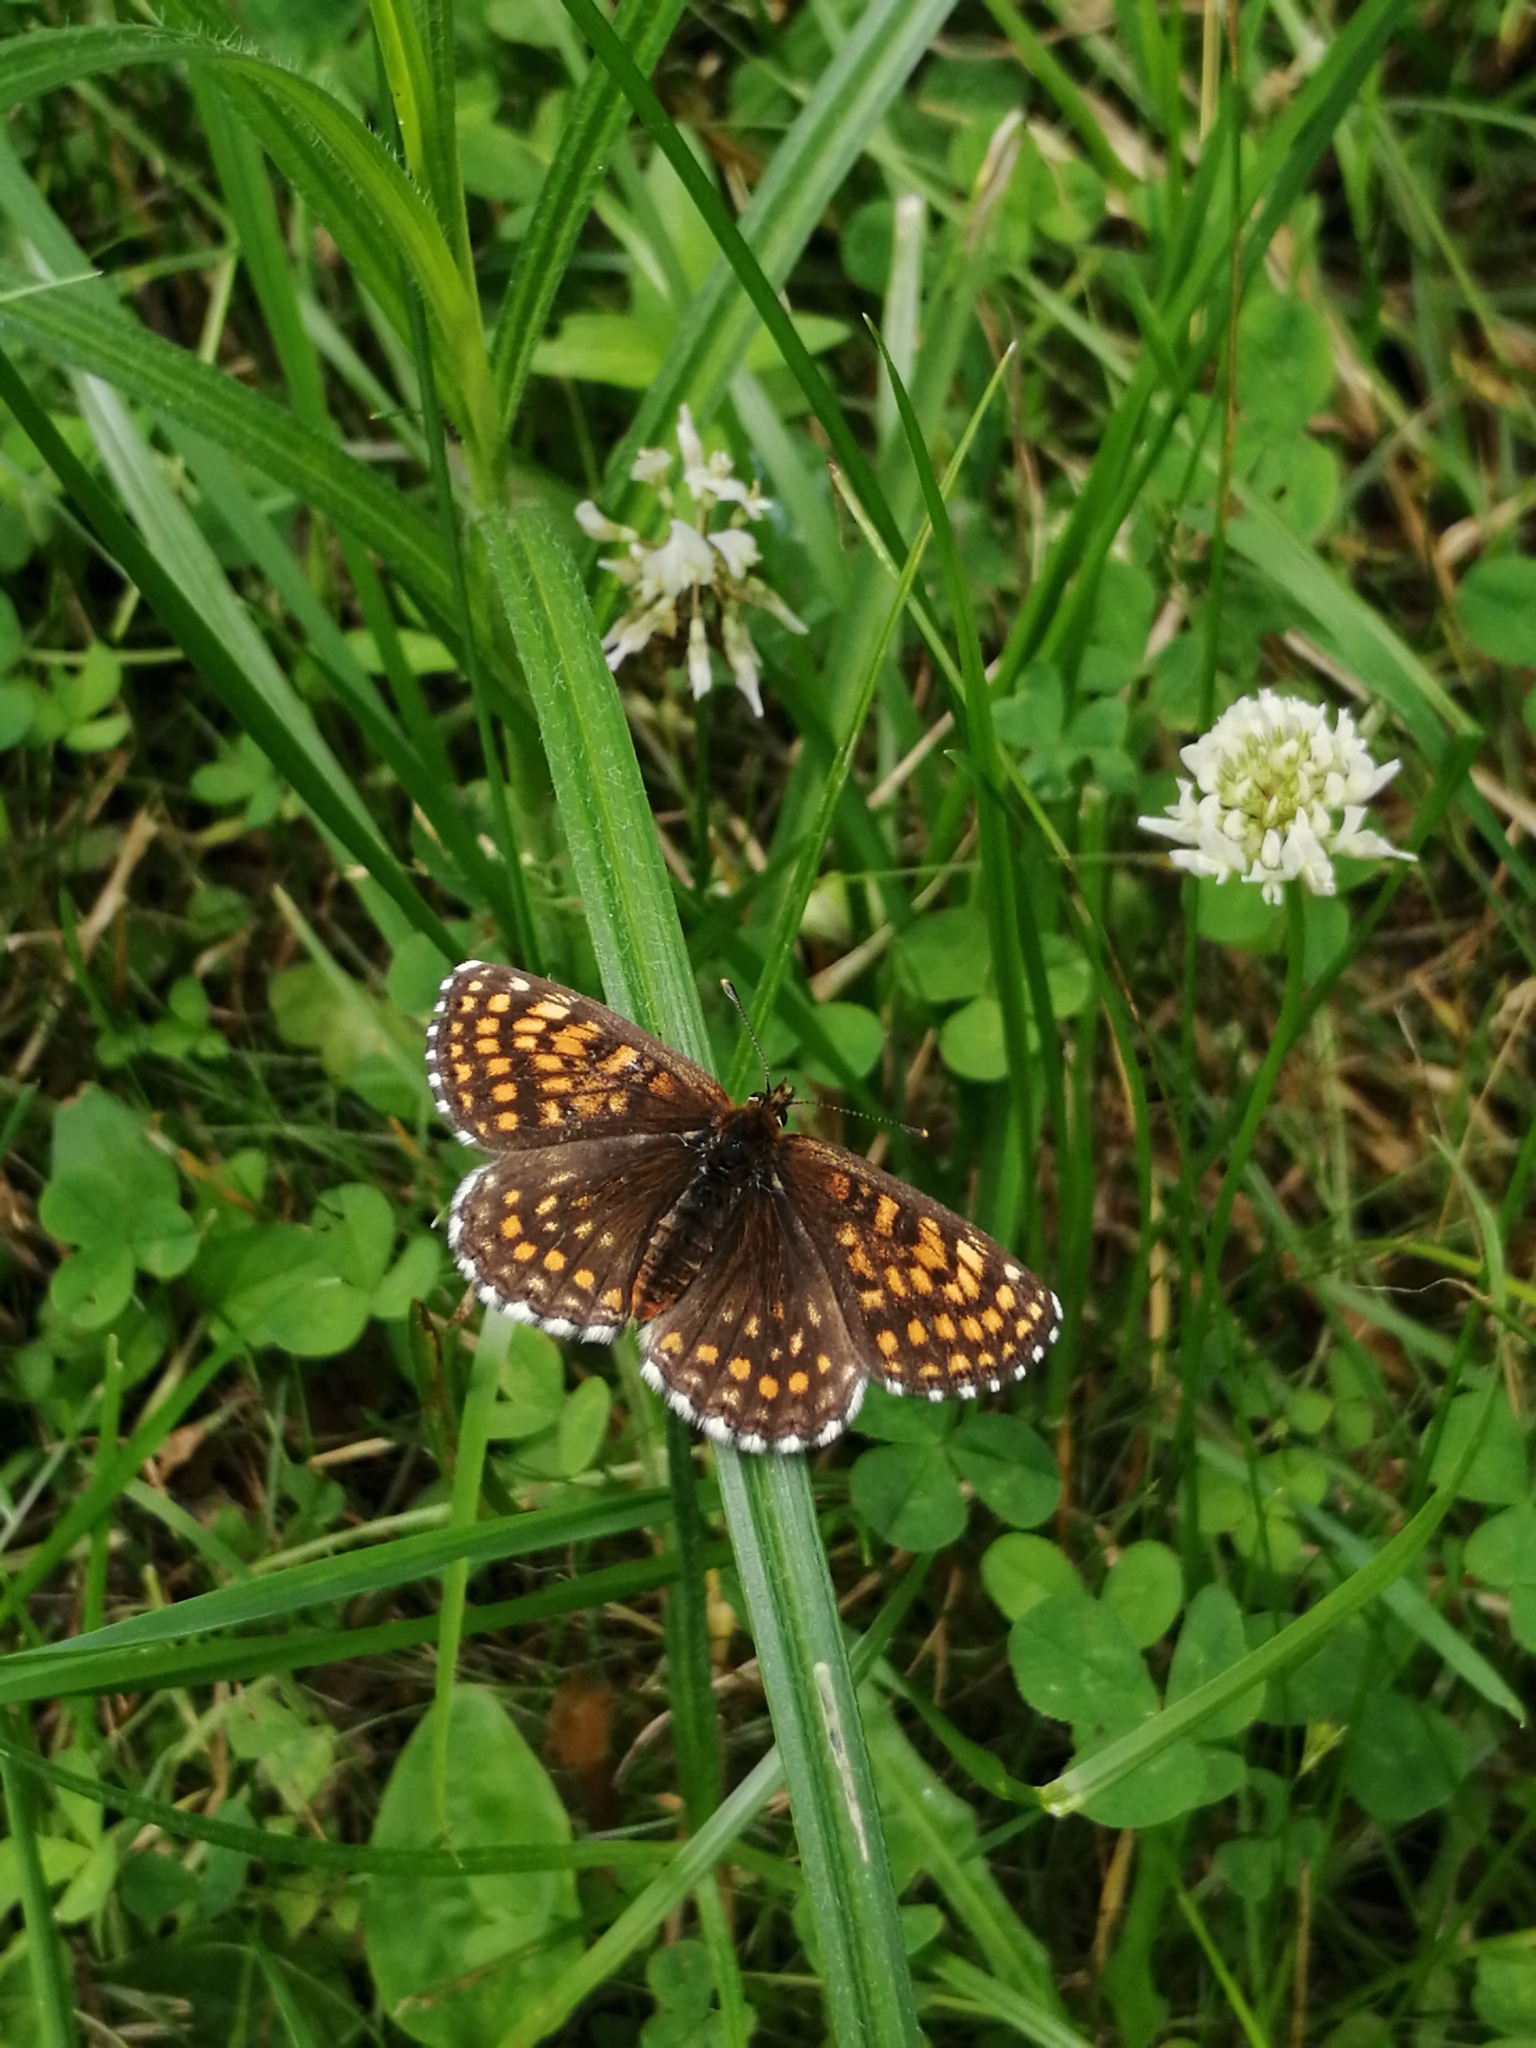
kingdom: Animalia
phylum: Arthropoda
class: Insecta
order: Lepidoptera
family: Nymphalidae
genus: Melitaea
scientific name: Melitaea
